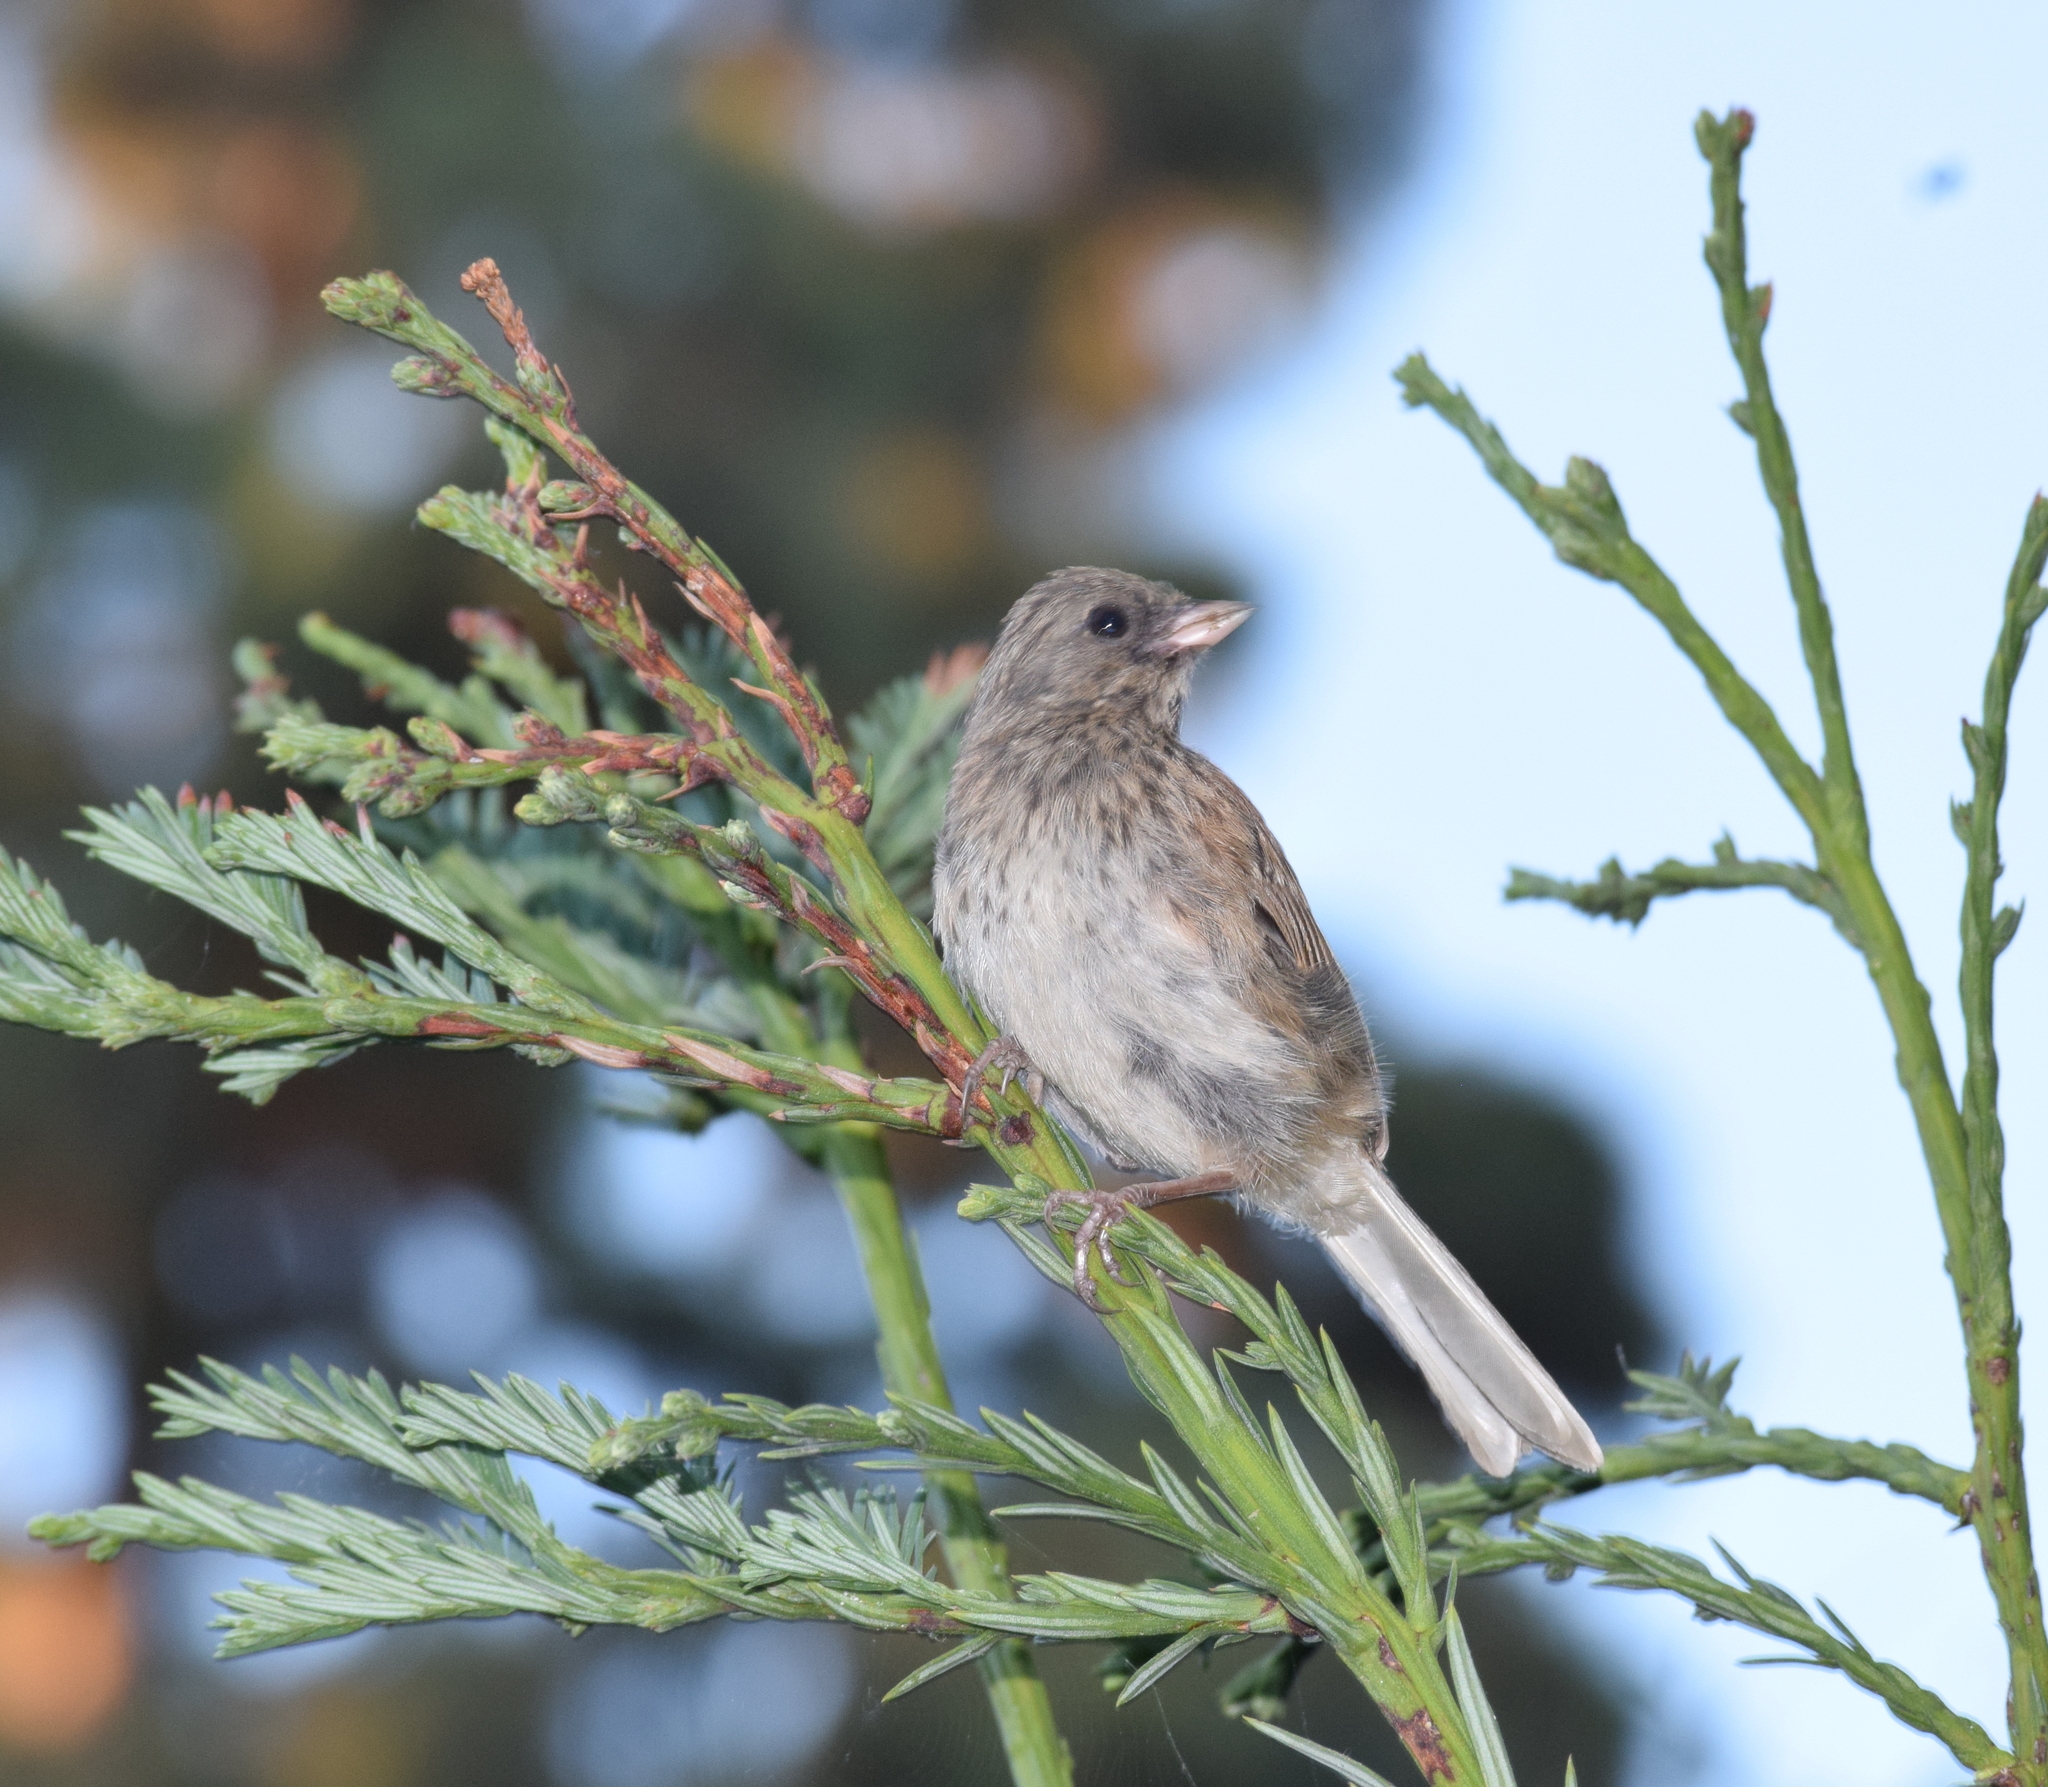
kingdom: Animalia
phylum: Chordata
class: Aves
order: Passeriformes
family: Passerellidae
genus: Junco
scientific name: Junco hyemalis
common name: Dark-eyed junco
